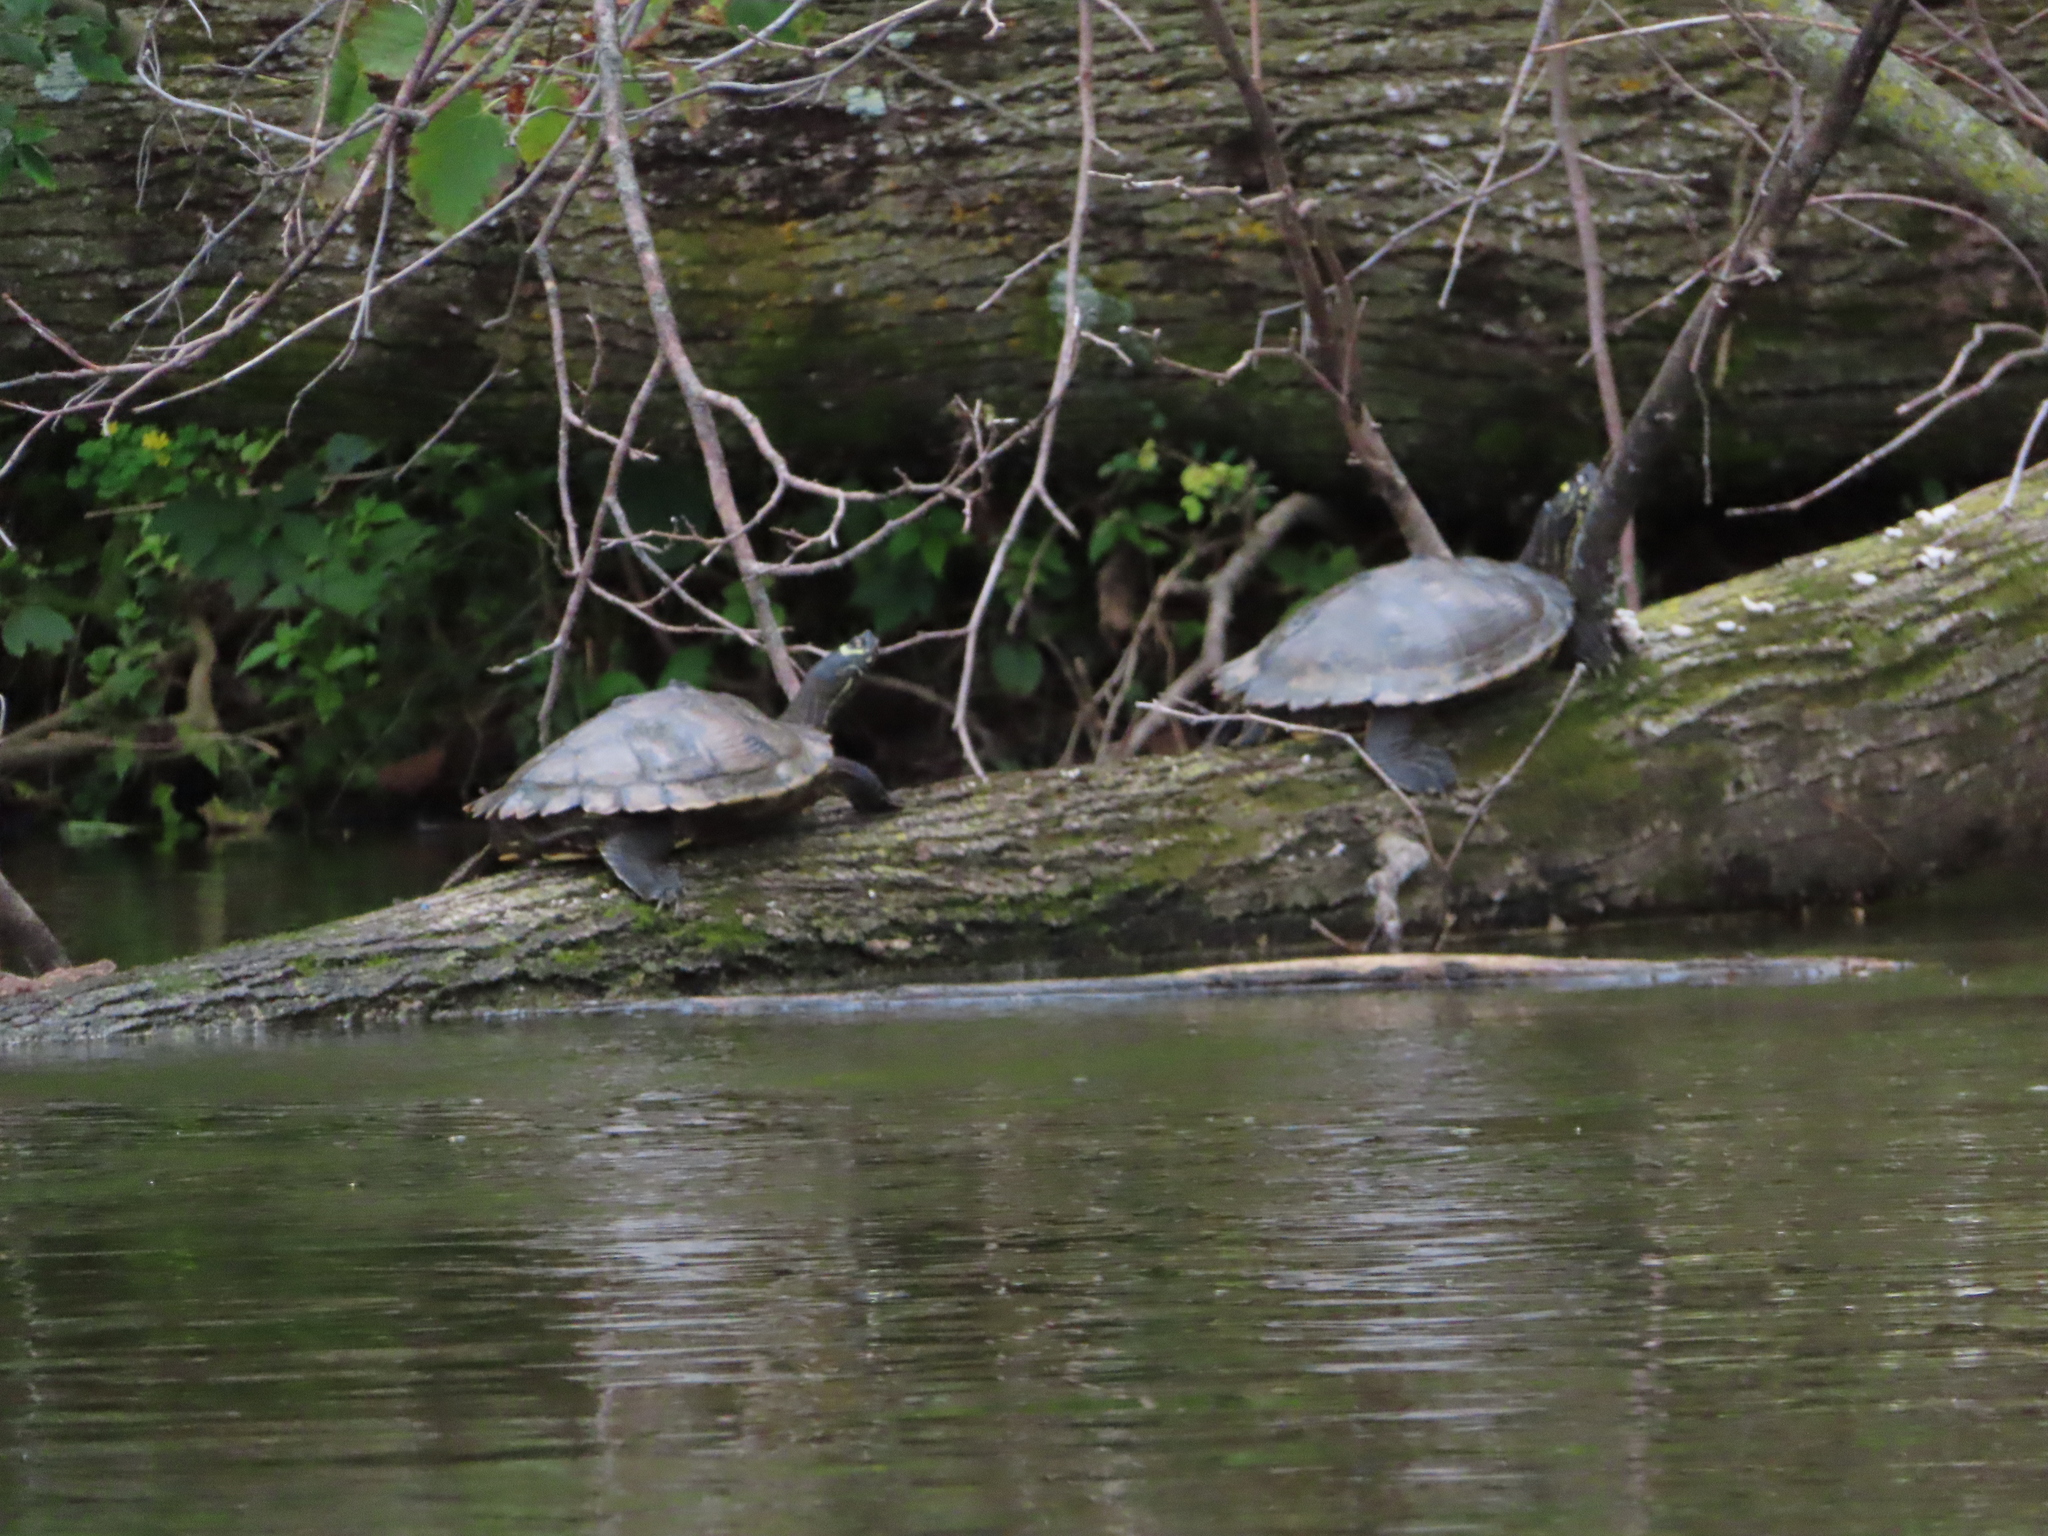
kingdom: Animalia
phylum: Chordata
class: Testudines
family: Emydidae
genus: Graptemys
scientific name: Graptemys ouachitensis
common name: Ouachita map turtle
